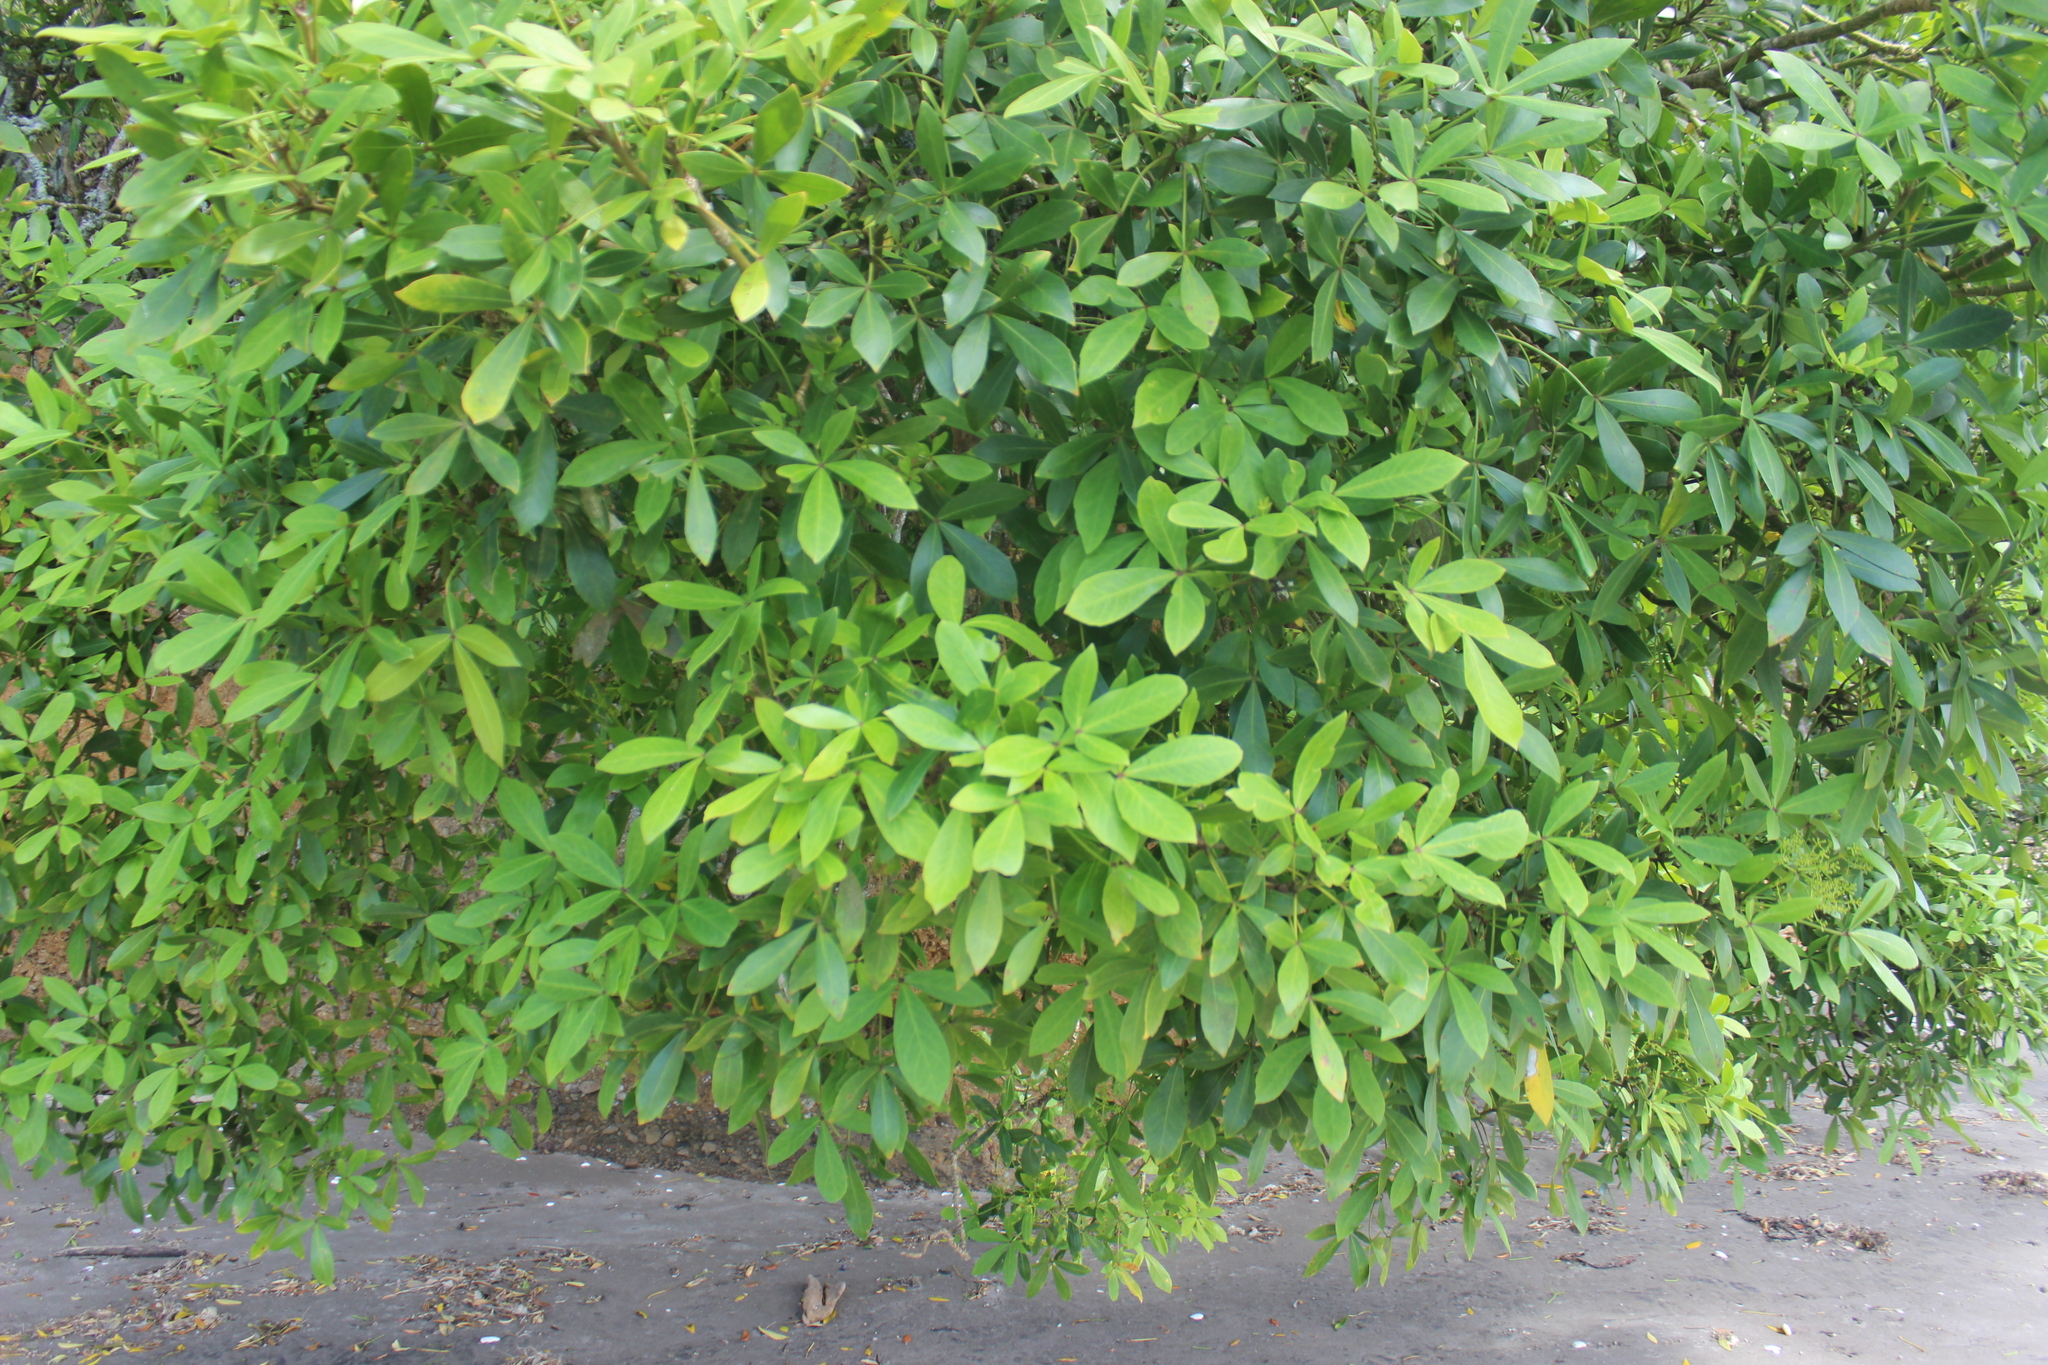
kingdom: Plantae
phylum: Tracheophyta
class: Magnoliopsida
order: Apiales
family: Araliaceae
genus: Pseudopanax
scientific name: Pseudopanax lessonii
